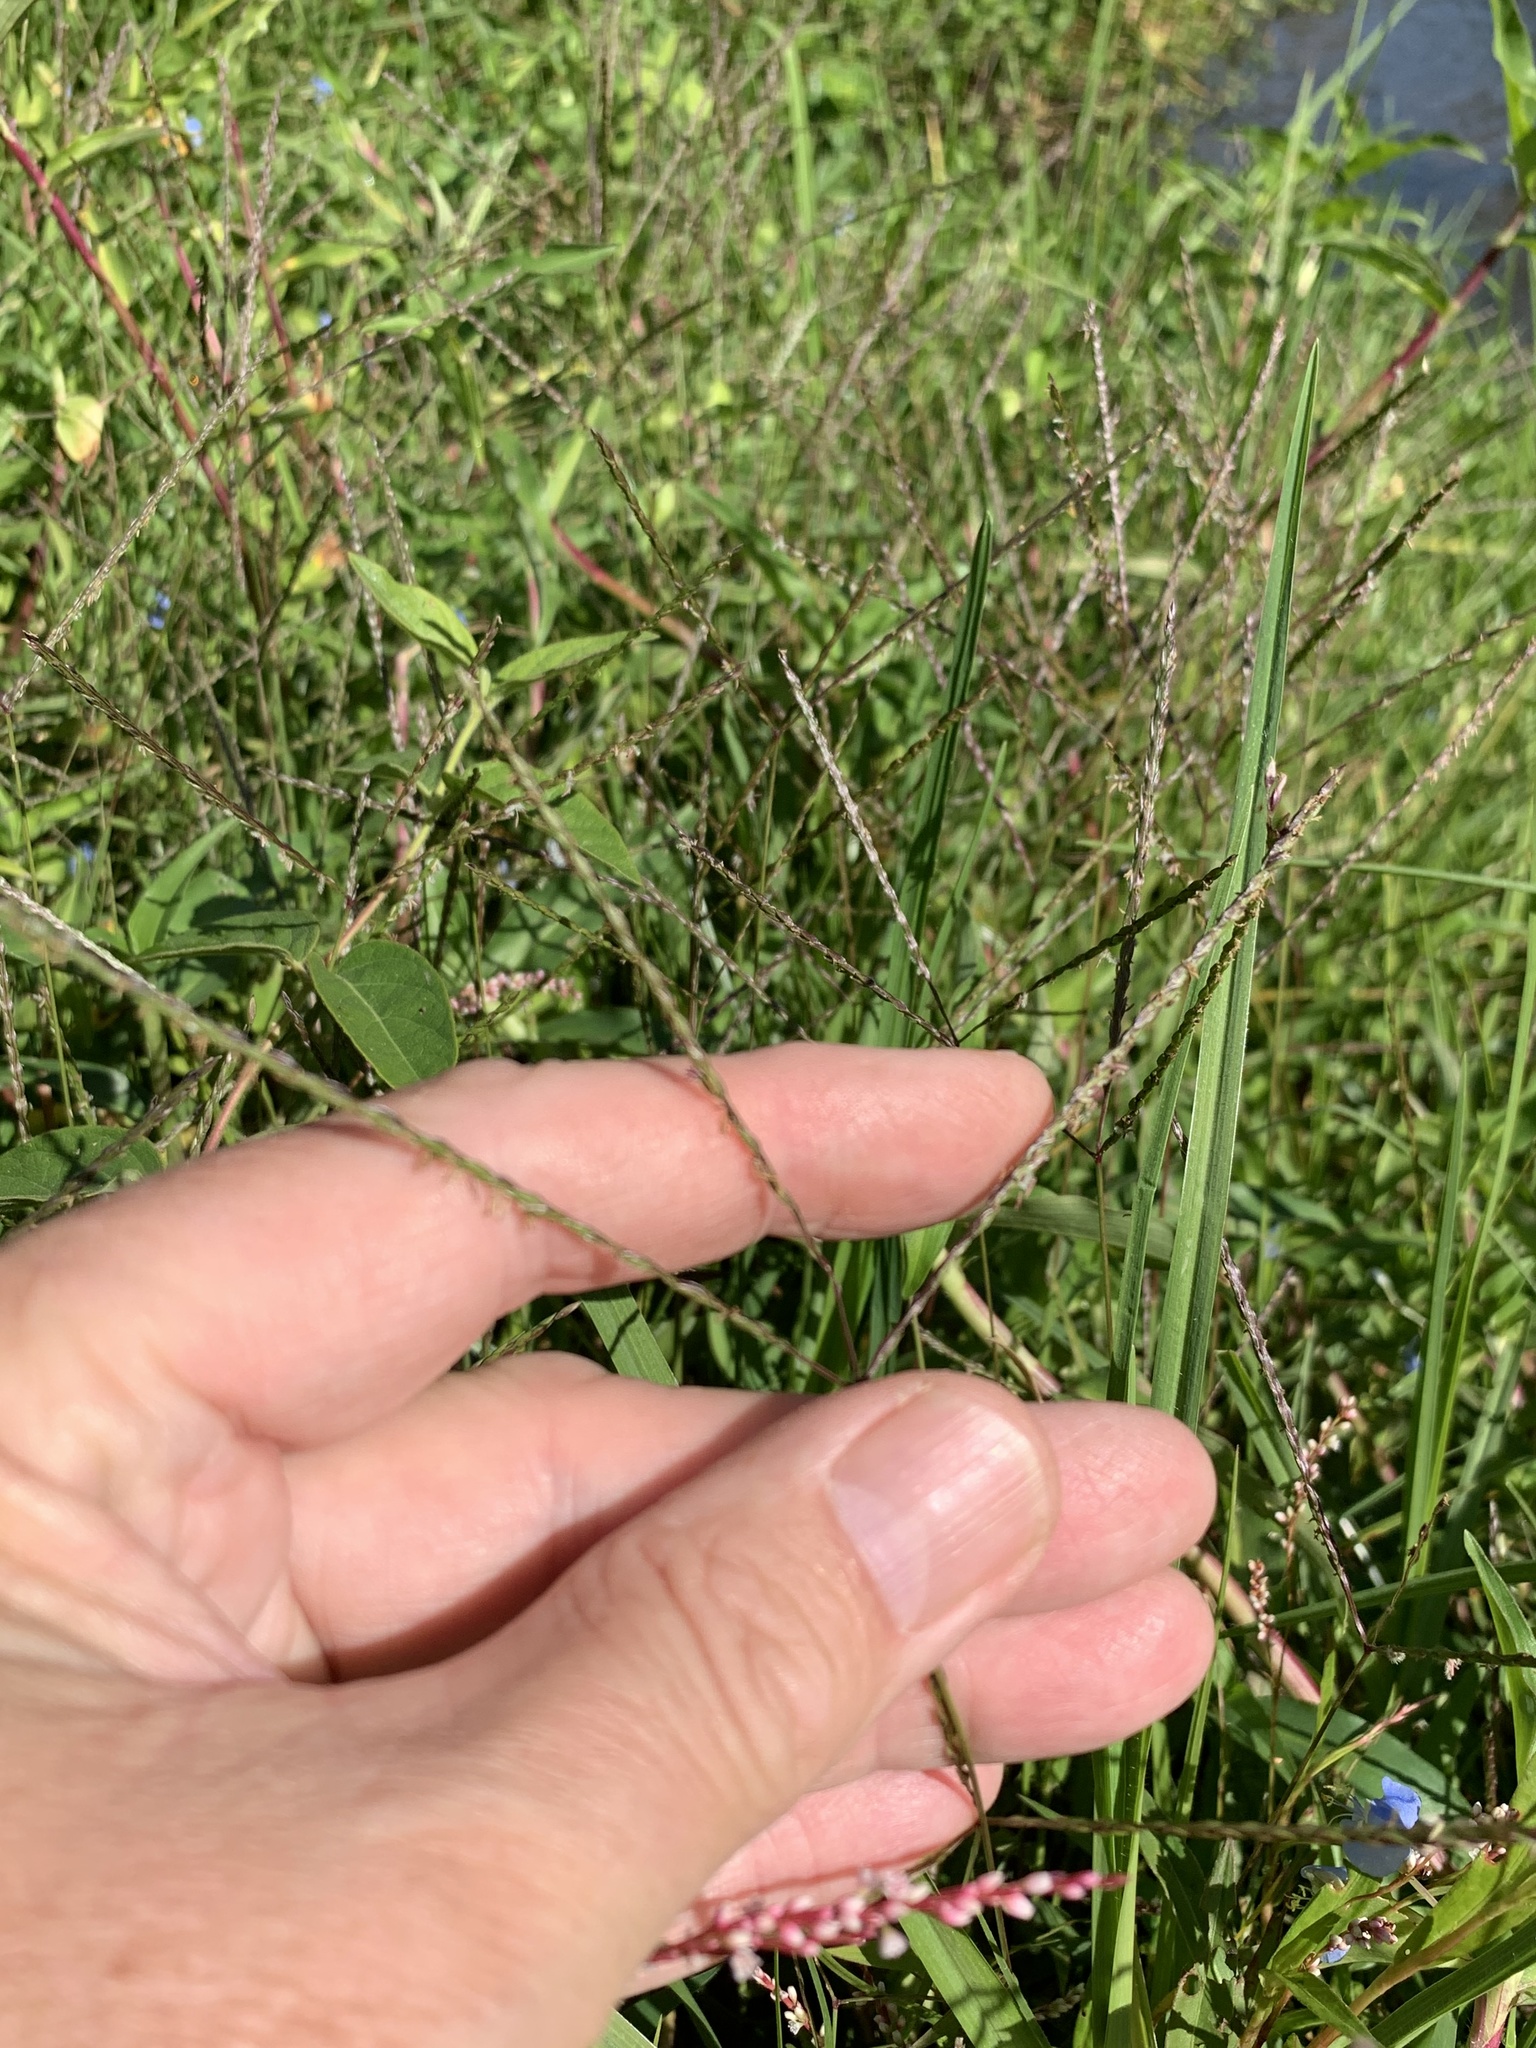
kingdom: Plantae
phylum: Tracheophyta
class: Liliopsida
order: Poales
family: Poaceae
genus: Cynodon
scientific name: Cynodon dactylon
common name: Bermuda grass
